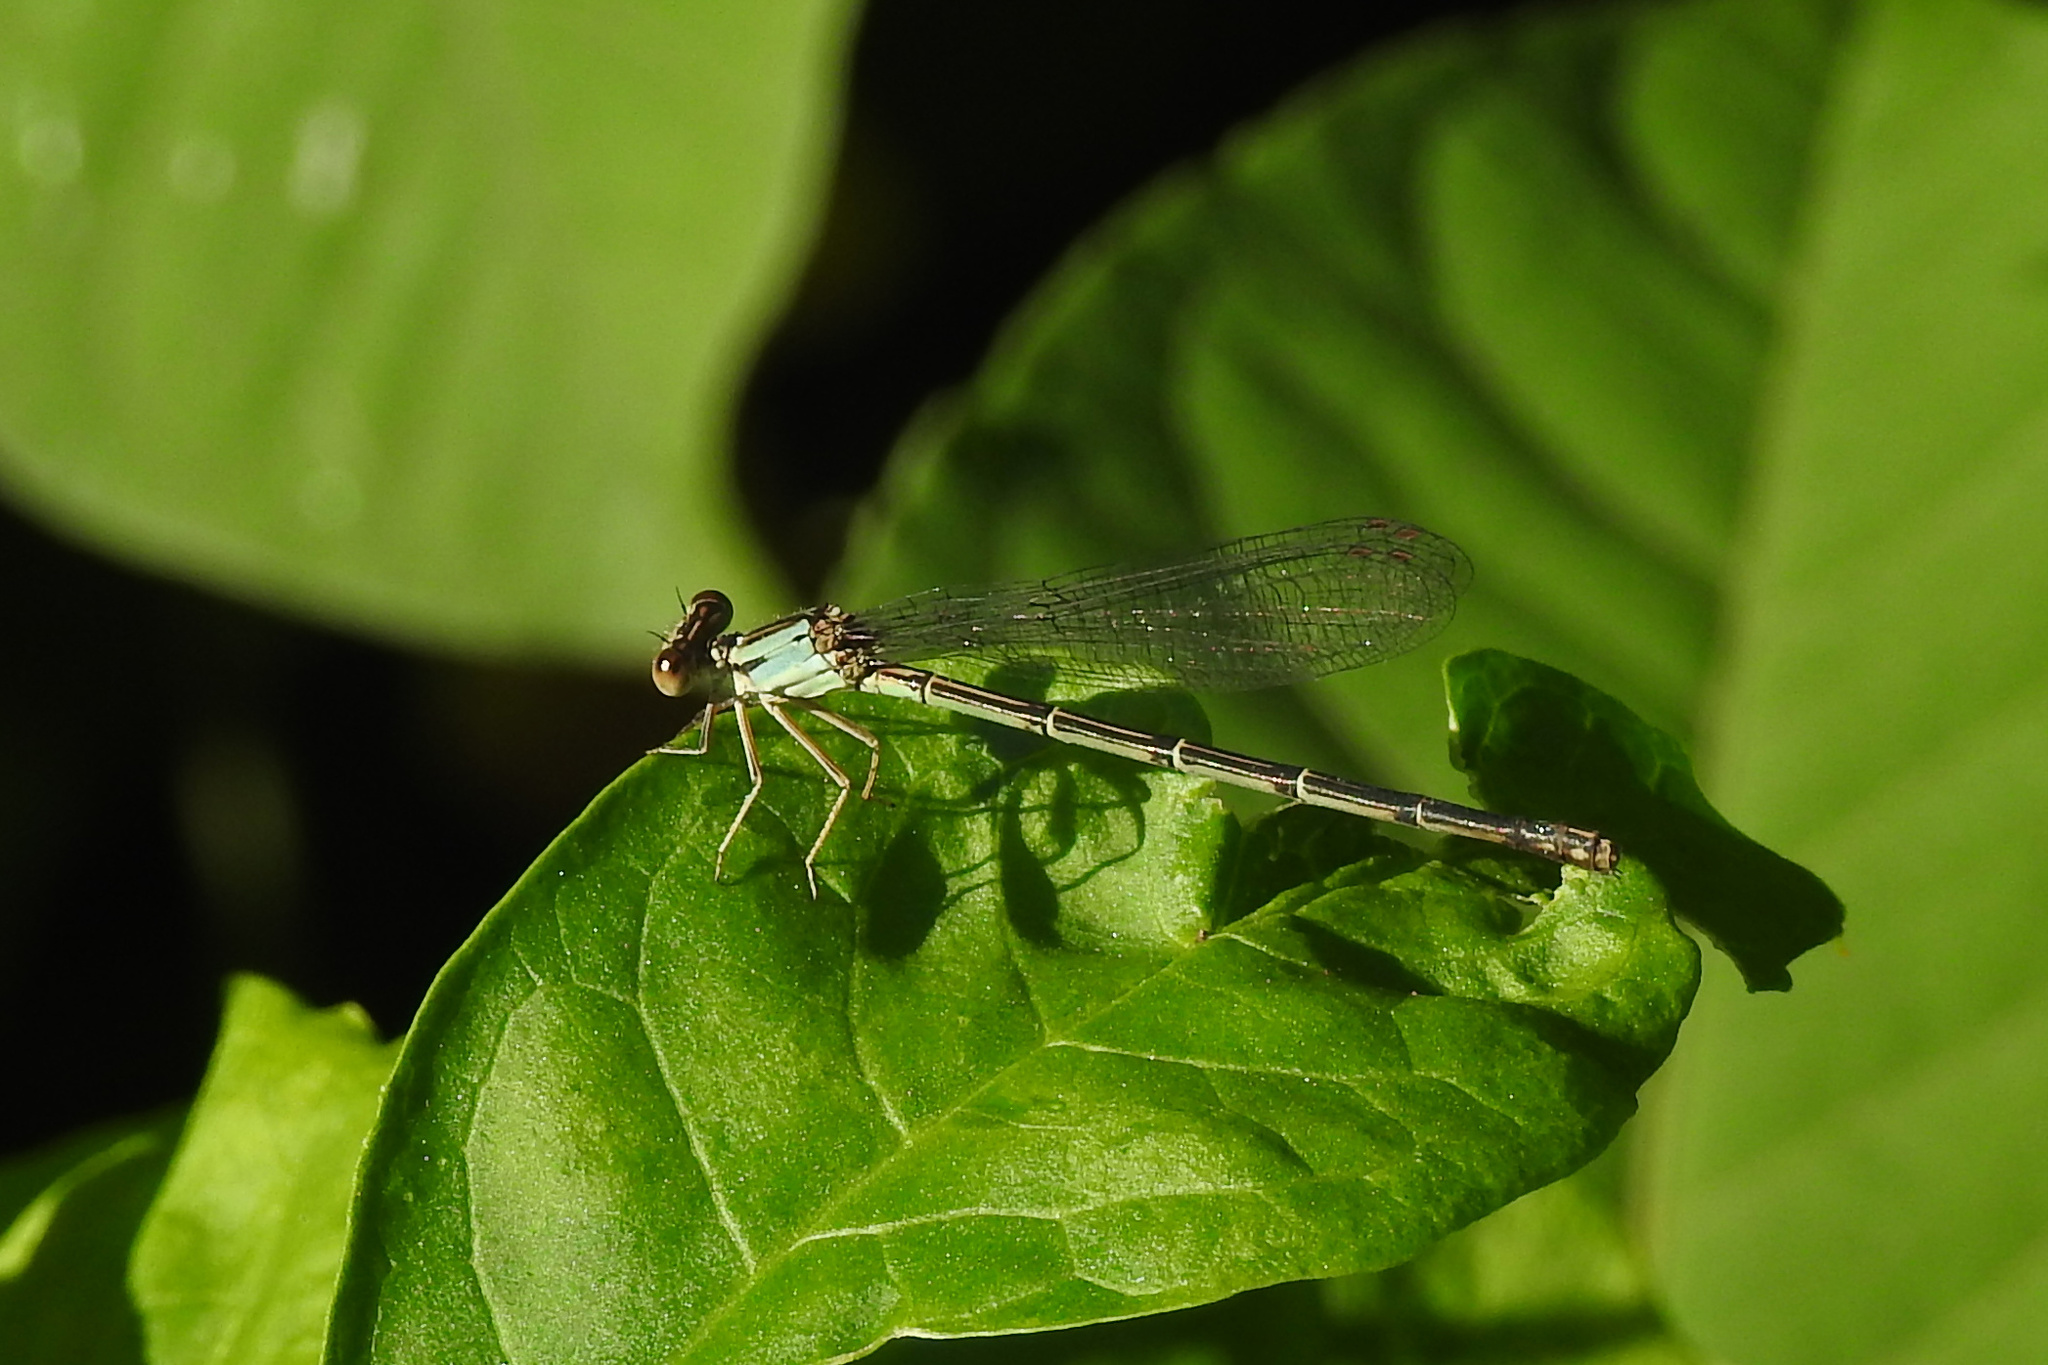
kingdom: Animalia
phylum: Arthropoda
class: Insecta
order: Odonata
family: Coenagrionidae
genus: Argia
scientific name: Argia apicalis
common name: Blue-fronted dancer
